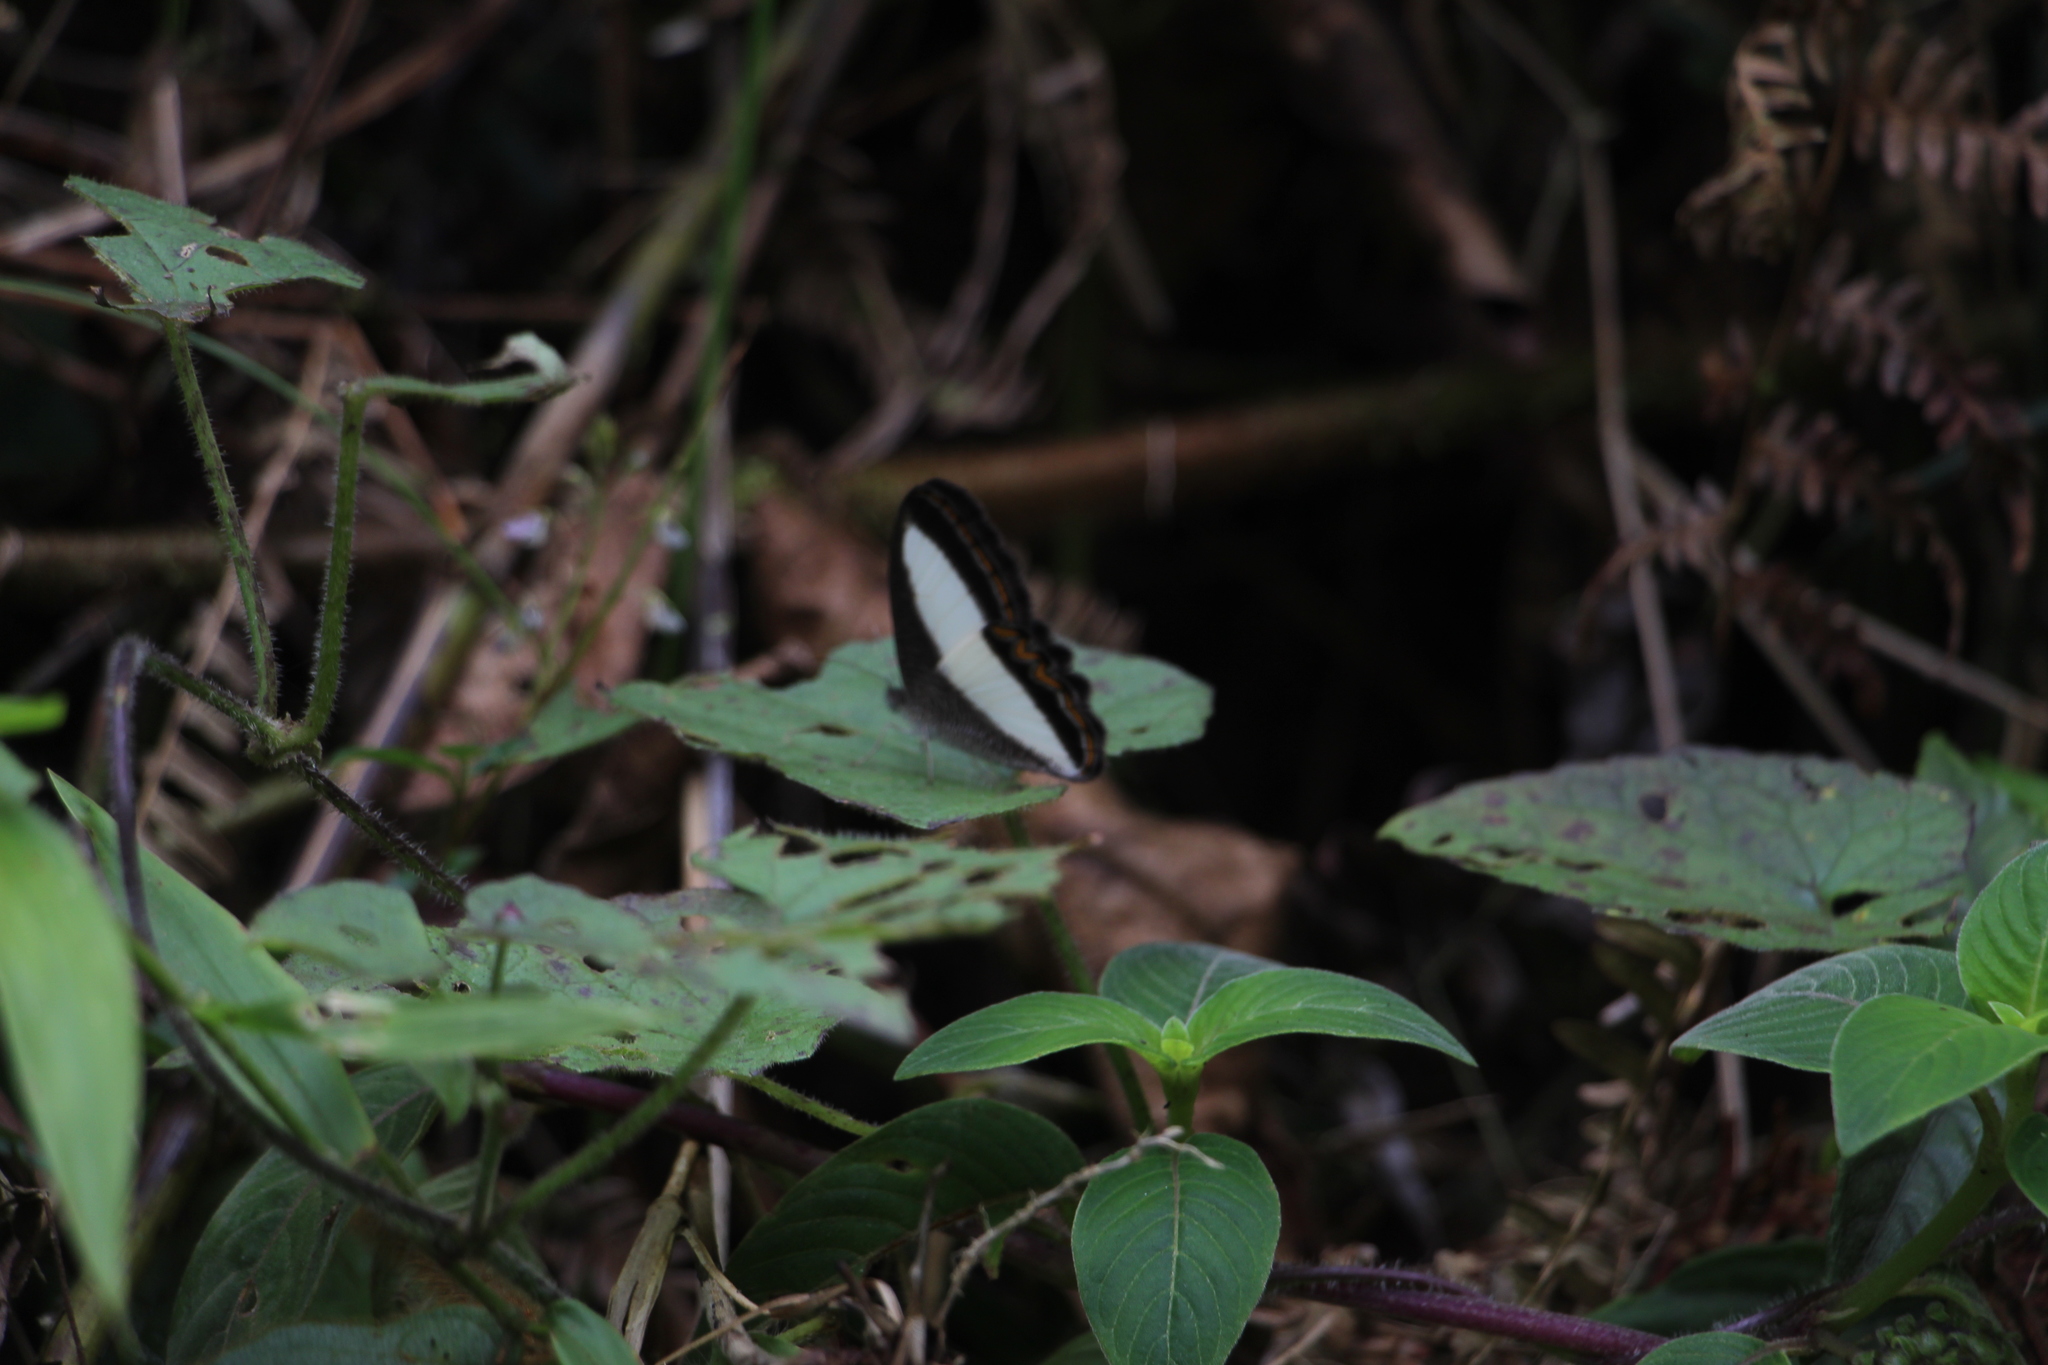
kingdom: Animalia
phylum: Arthropoda
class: Insecta
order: Lepidoptera
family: Nymphalidae
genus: Oressinoma
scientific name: Oressinoma typhla
